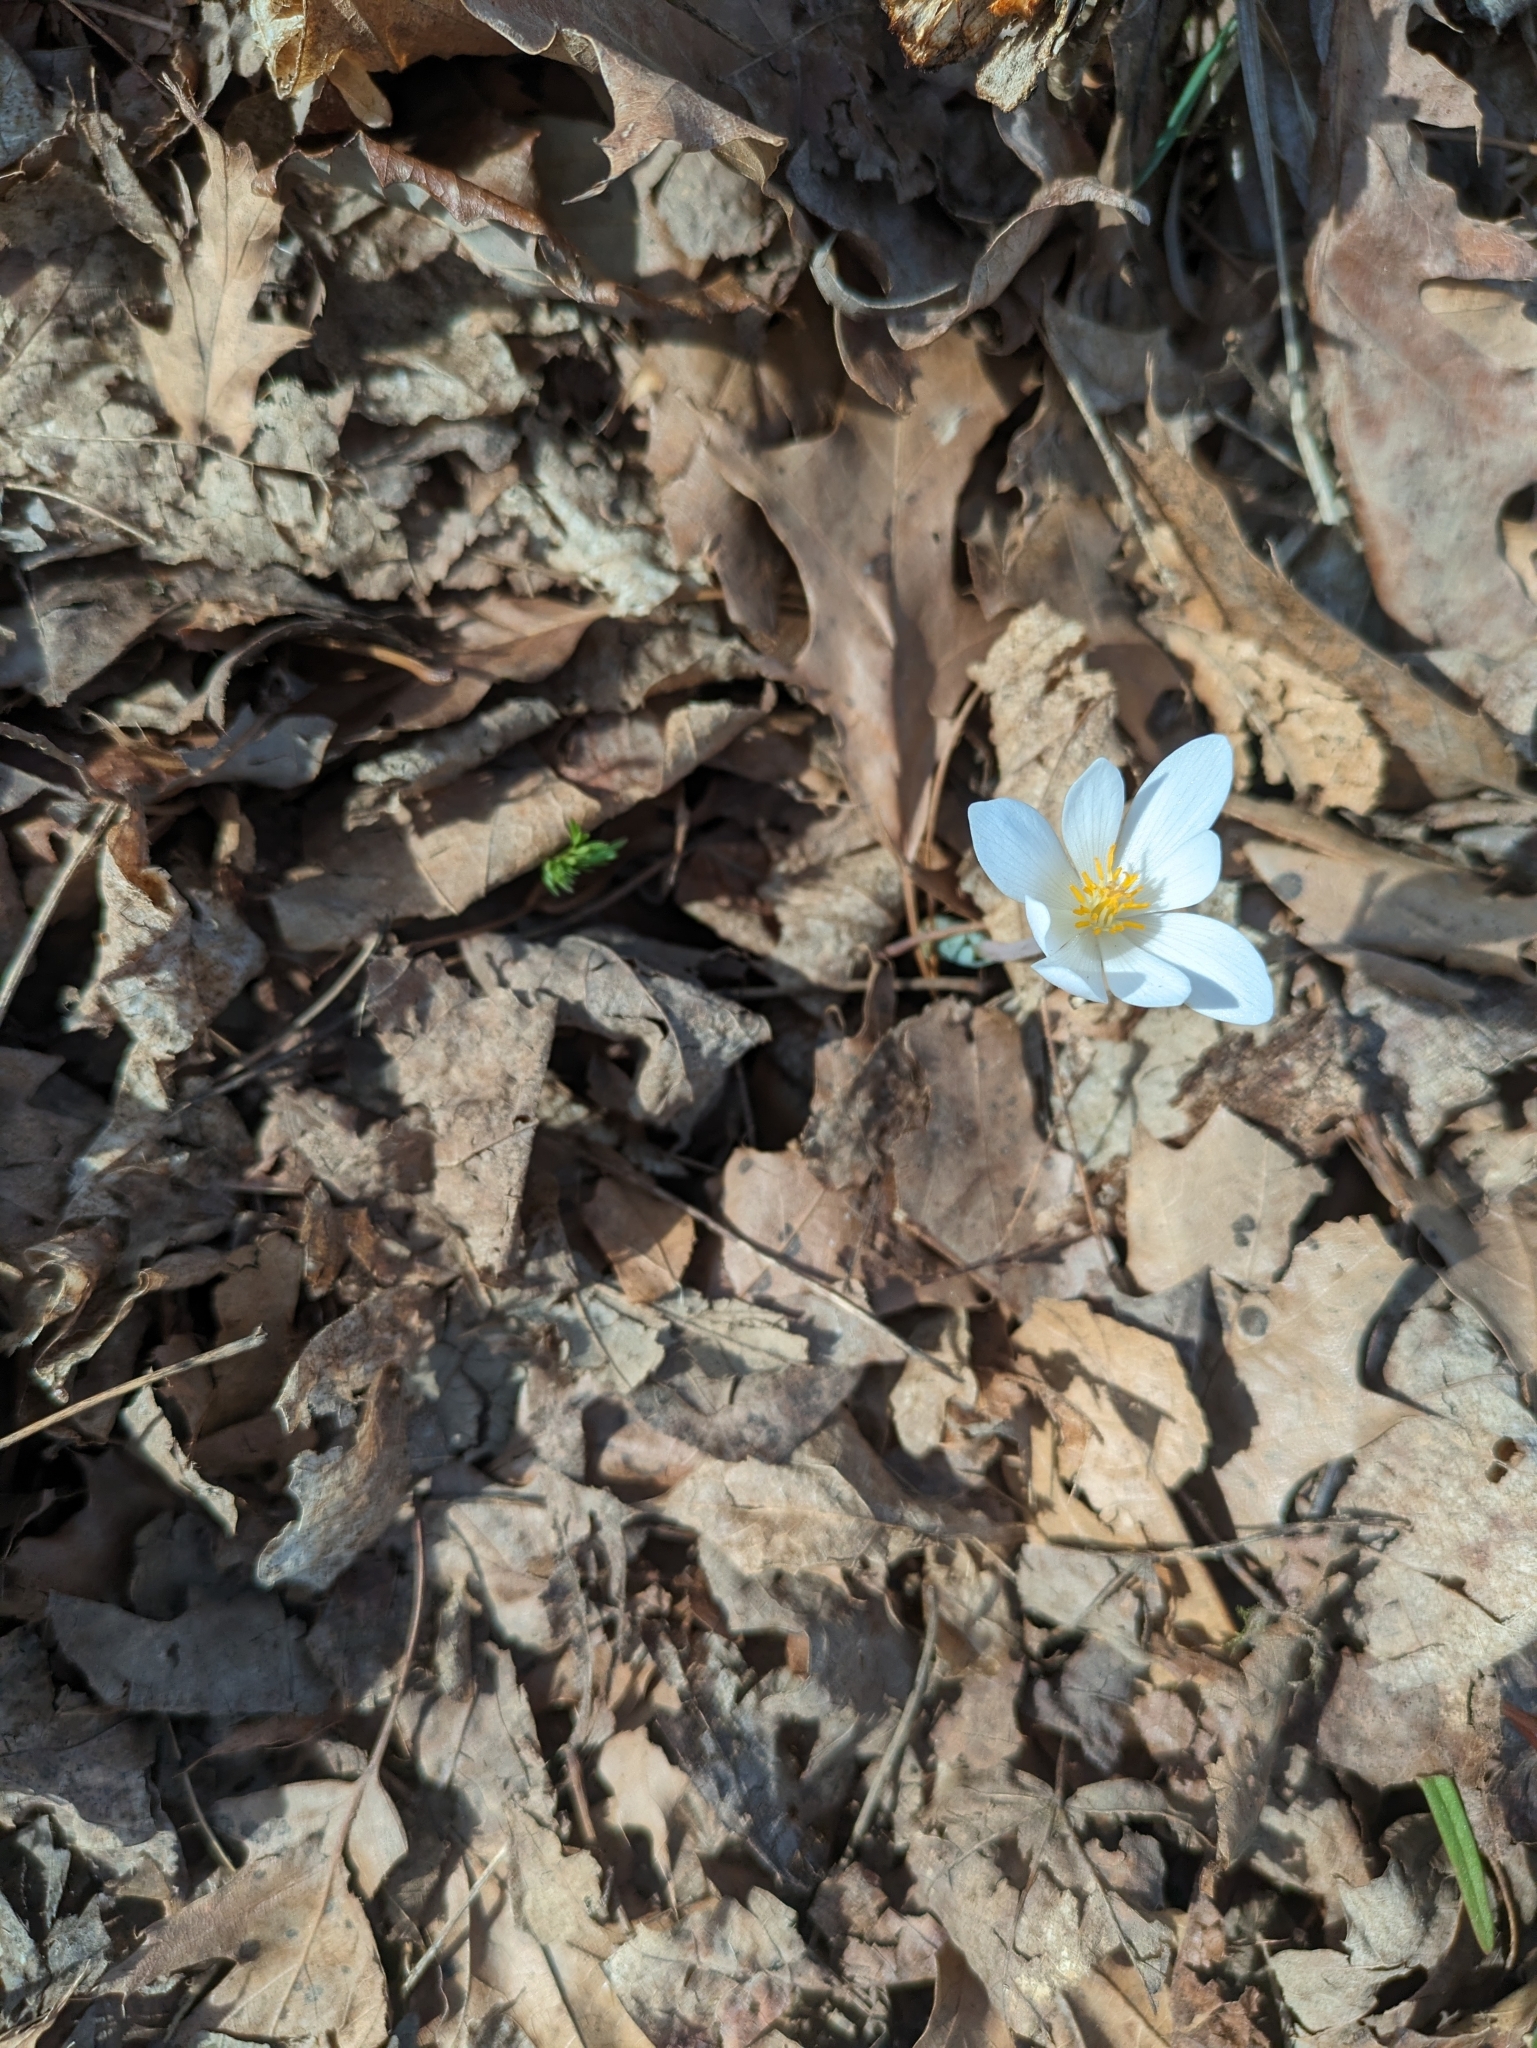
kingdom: Plantae
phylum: Tracheophyta
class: Magnoliopsida
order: Ranunculales
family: Papaveraceae
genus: Sanguinaria
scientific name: Sanguinaria canadensis
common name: Bloodroot
